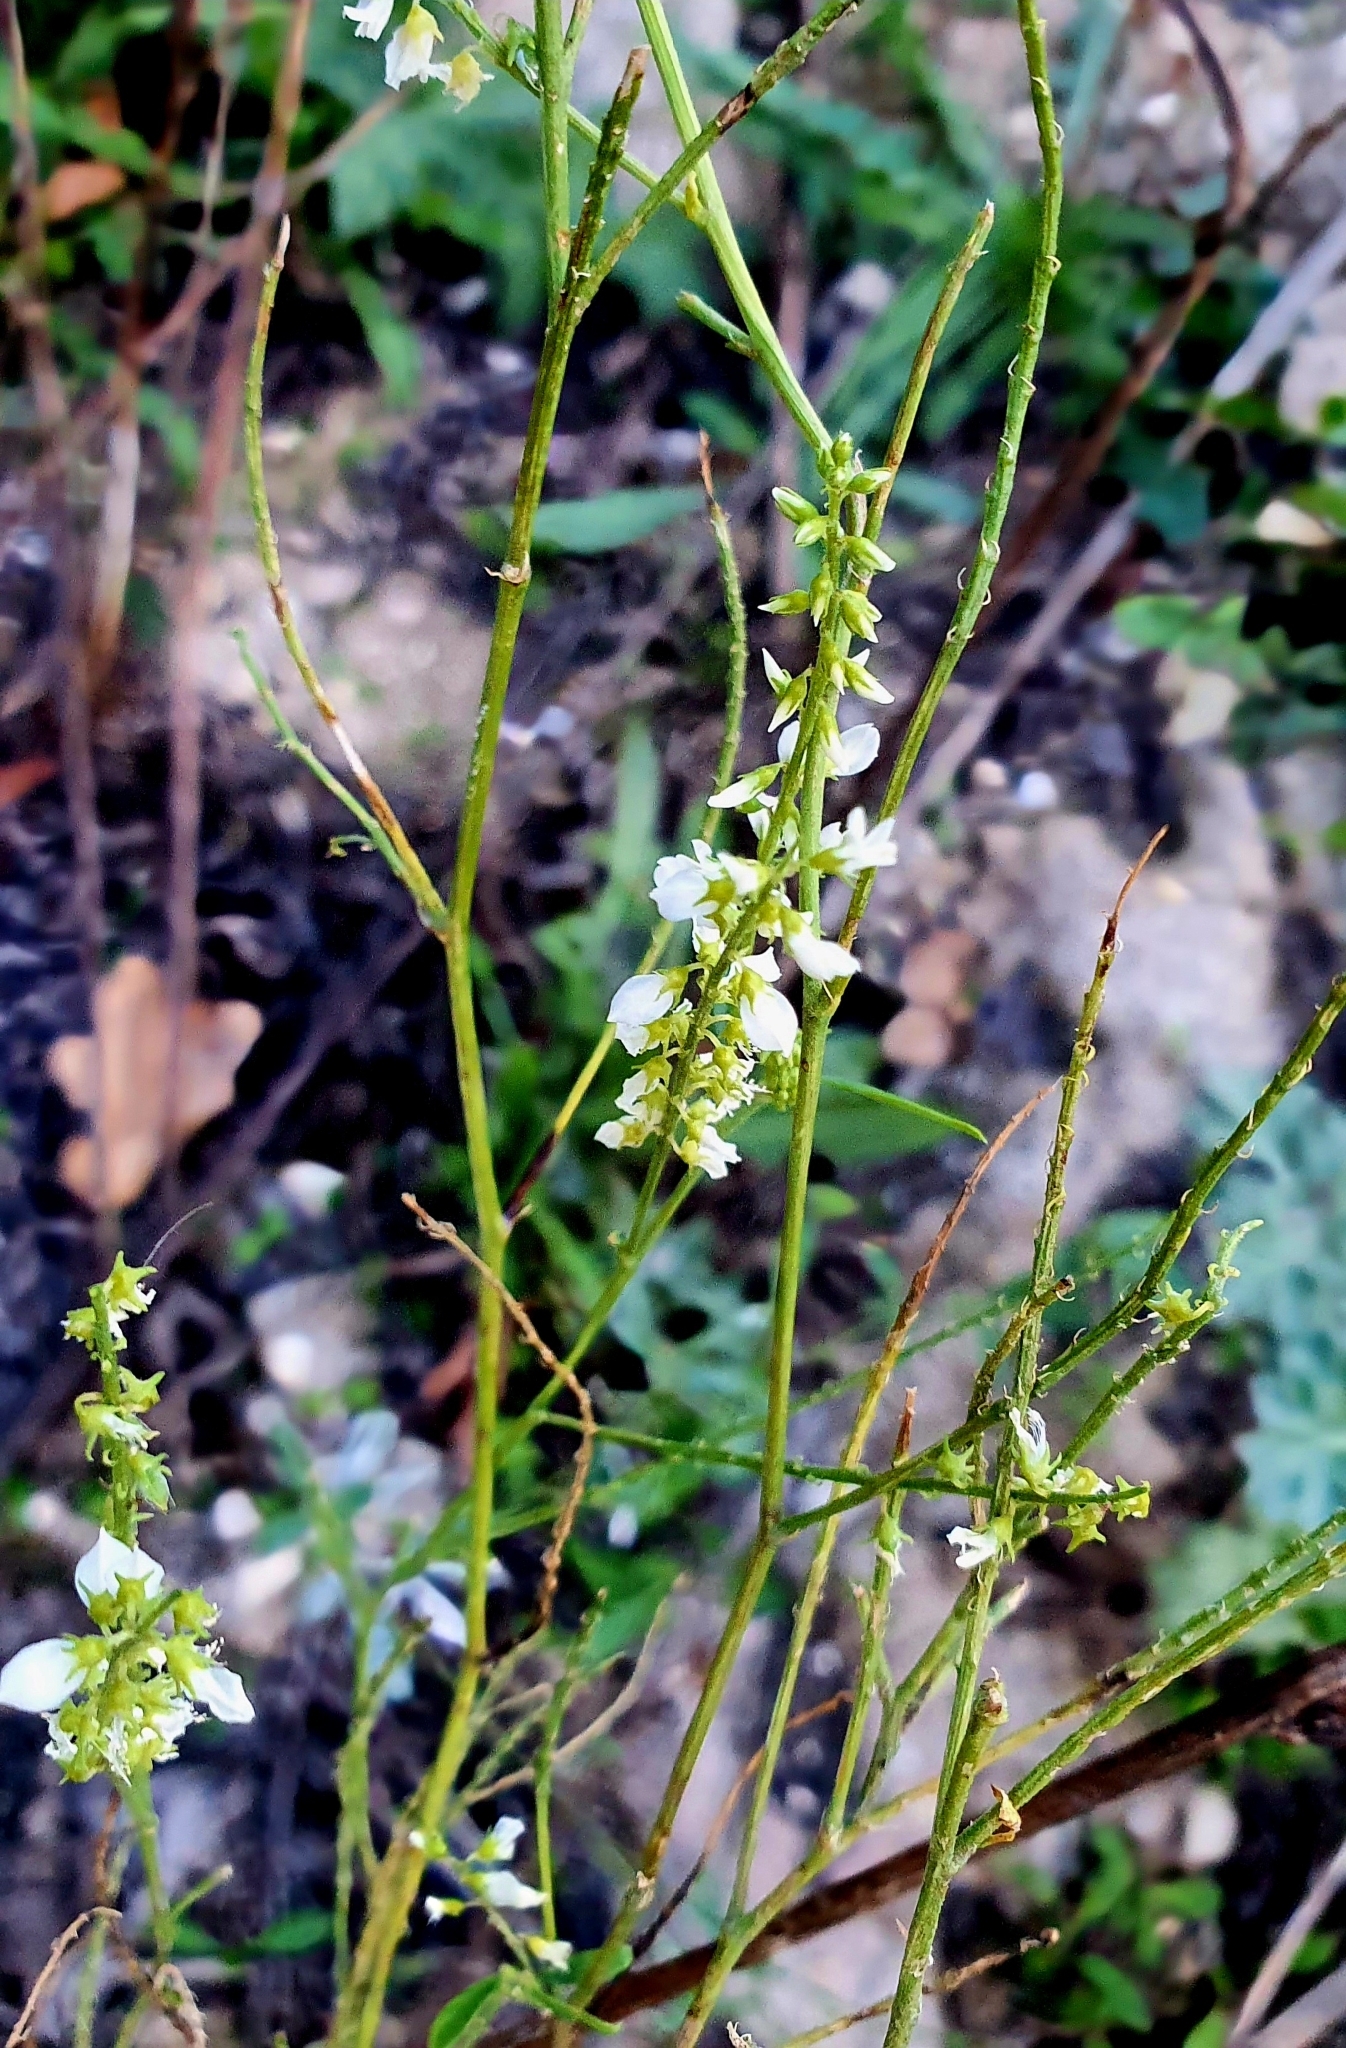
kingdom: Plantae
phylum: Tracheophyta
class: Magnoliopsida
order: Fabales
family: Fabaceae
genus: Melilotus
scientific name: Melilotus albus
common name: White melilot
